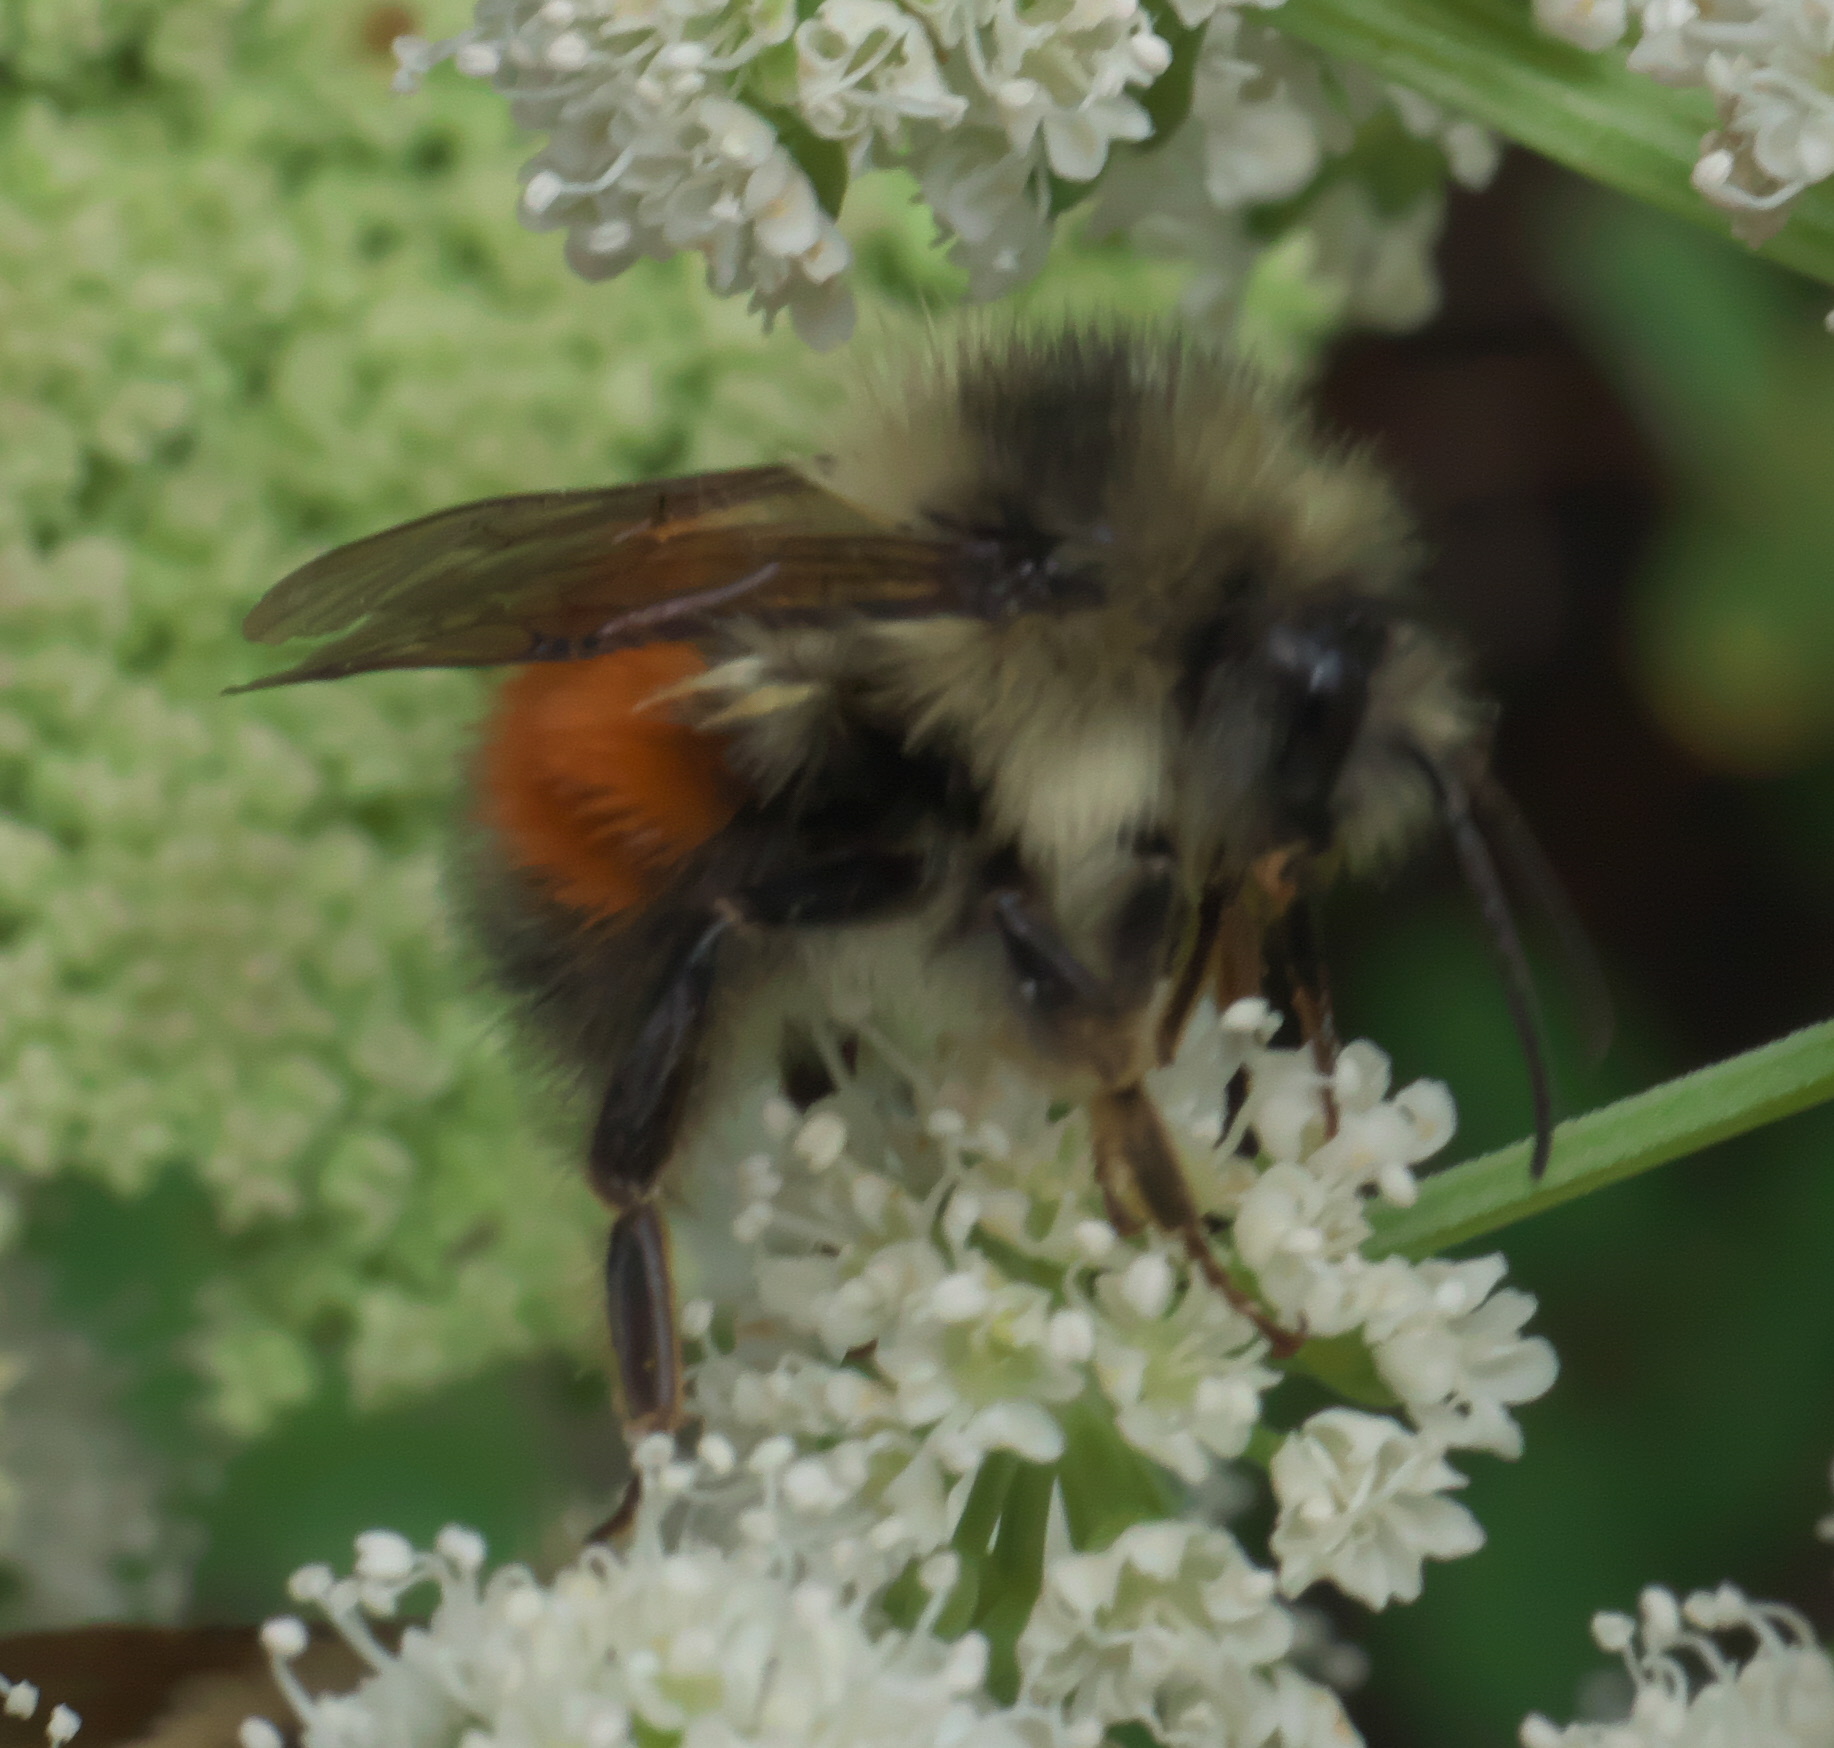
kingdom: Animalia
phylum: Arthropoda
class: Insecta
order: Hymenoptera
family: Apidae
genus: Bombus
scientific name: Bombus melanopygus
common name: Black tail bumble bee
